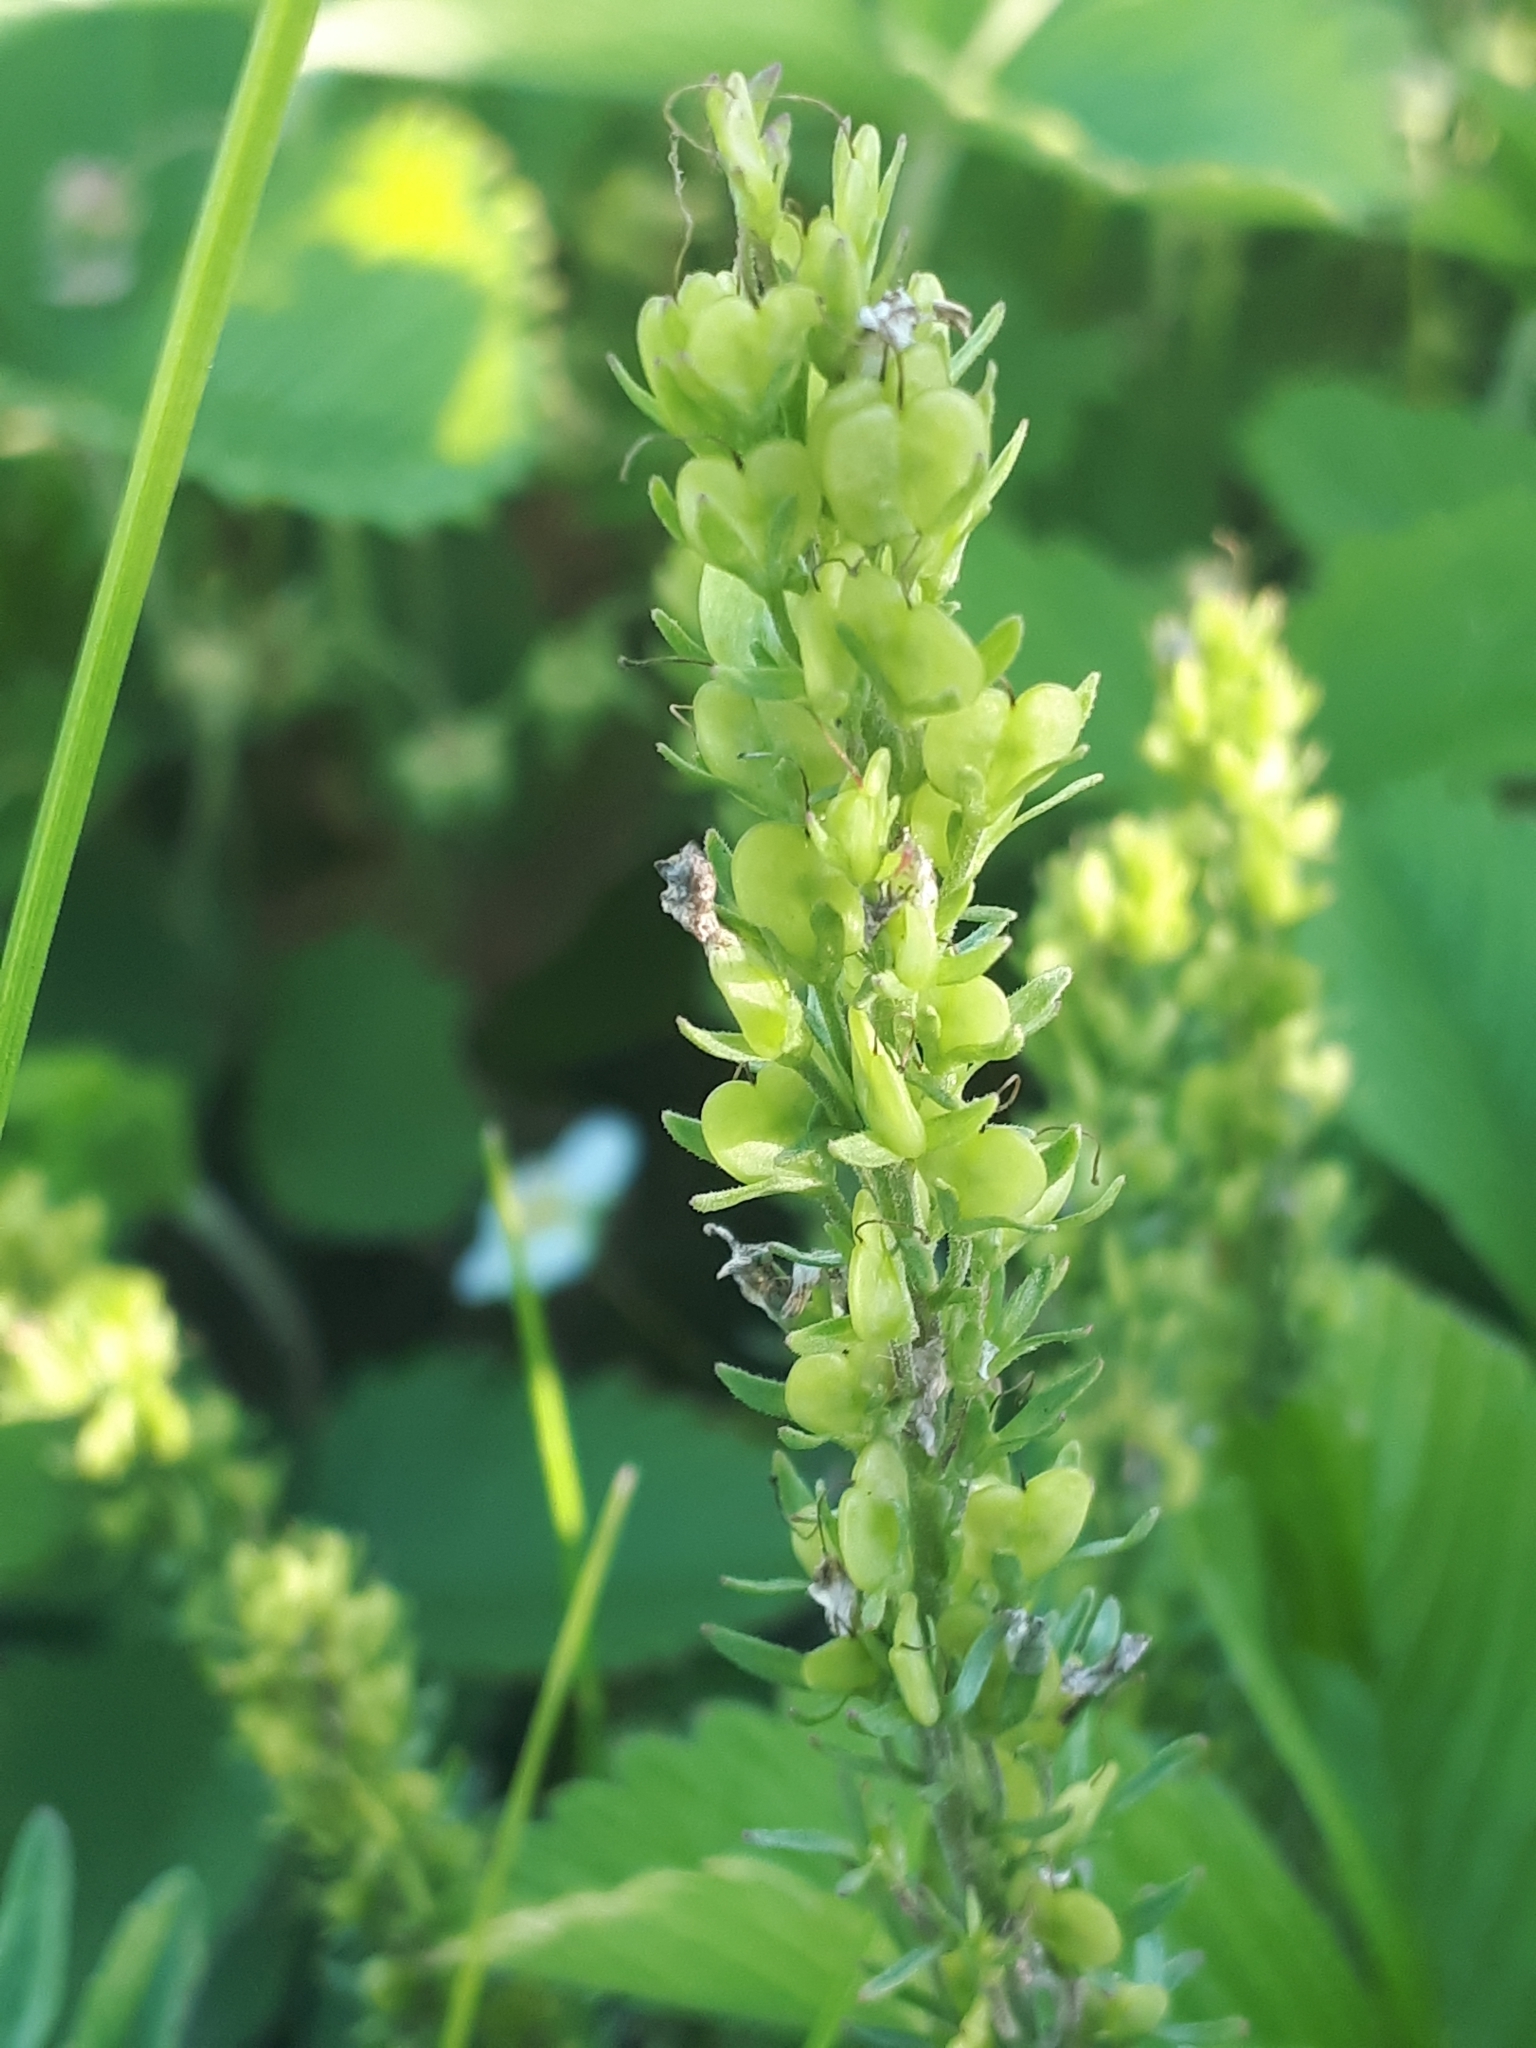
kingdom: Plantae
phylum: Tracheophyta
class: Magnoliopsida
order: Lamiales
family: Plantaginaceae
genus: Veronica
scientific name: Veronica prostrata
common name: Prostrate speedwell
